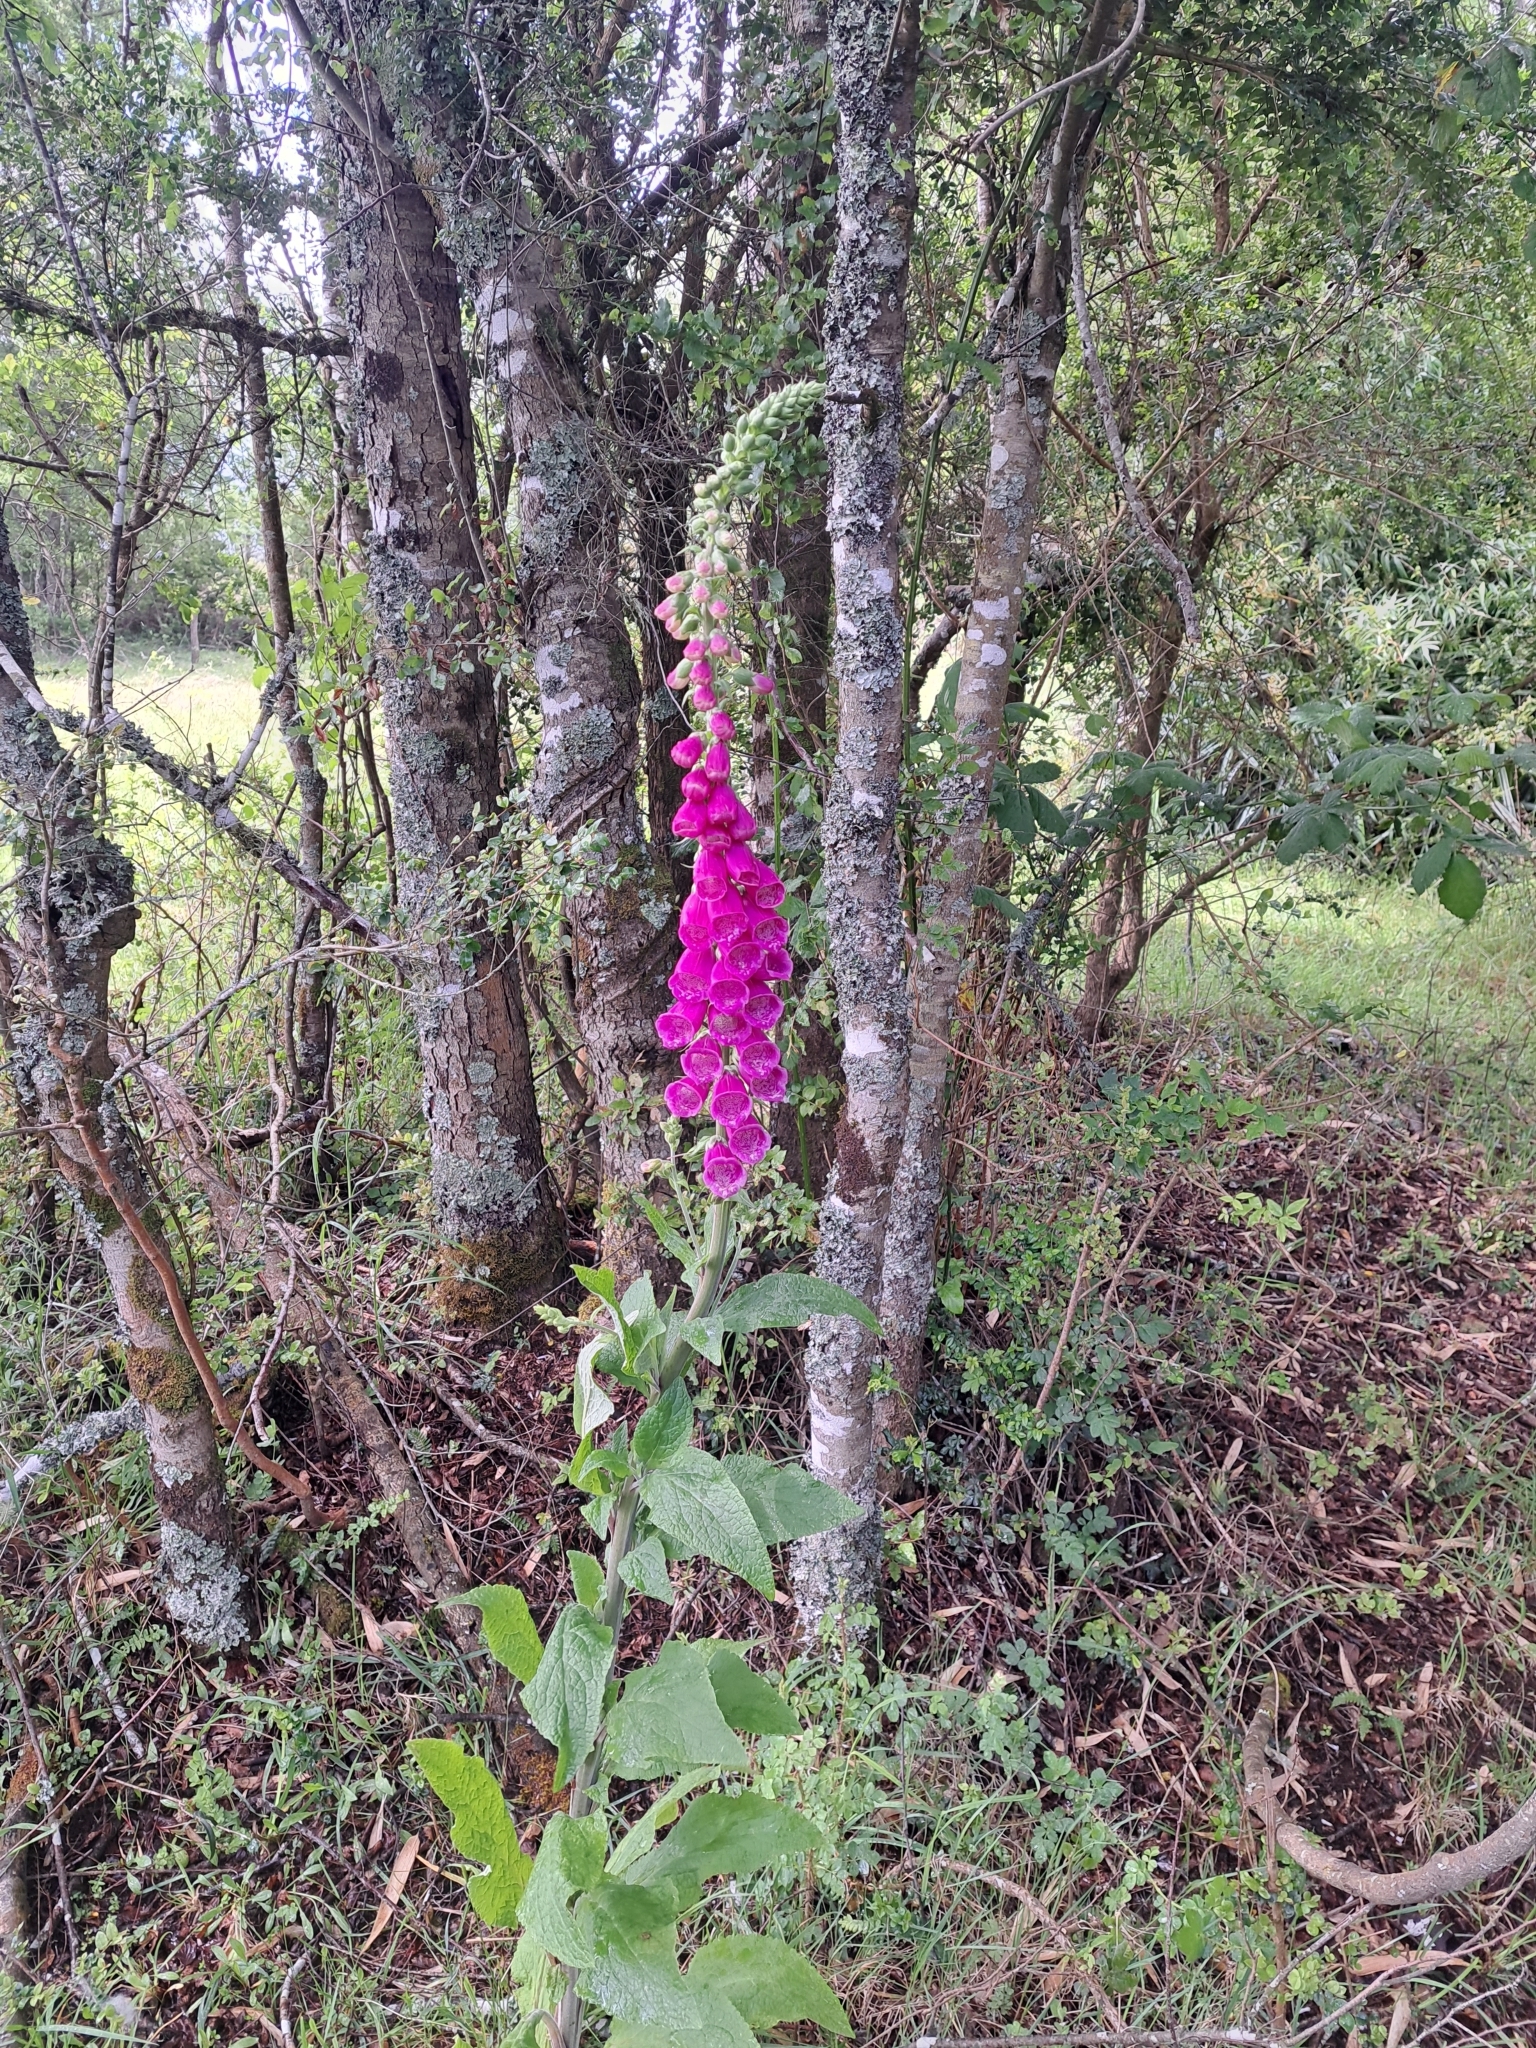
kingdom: Plantae
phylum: Tracheophyta
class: Magnoliopsida
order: Lamiales
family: Plantaginaceae
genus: Digitalis
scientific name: Digitalis purpurea
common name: Foxglove
